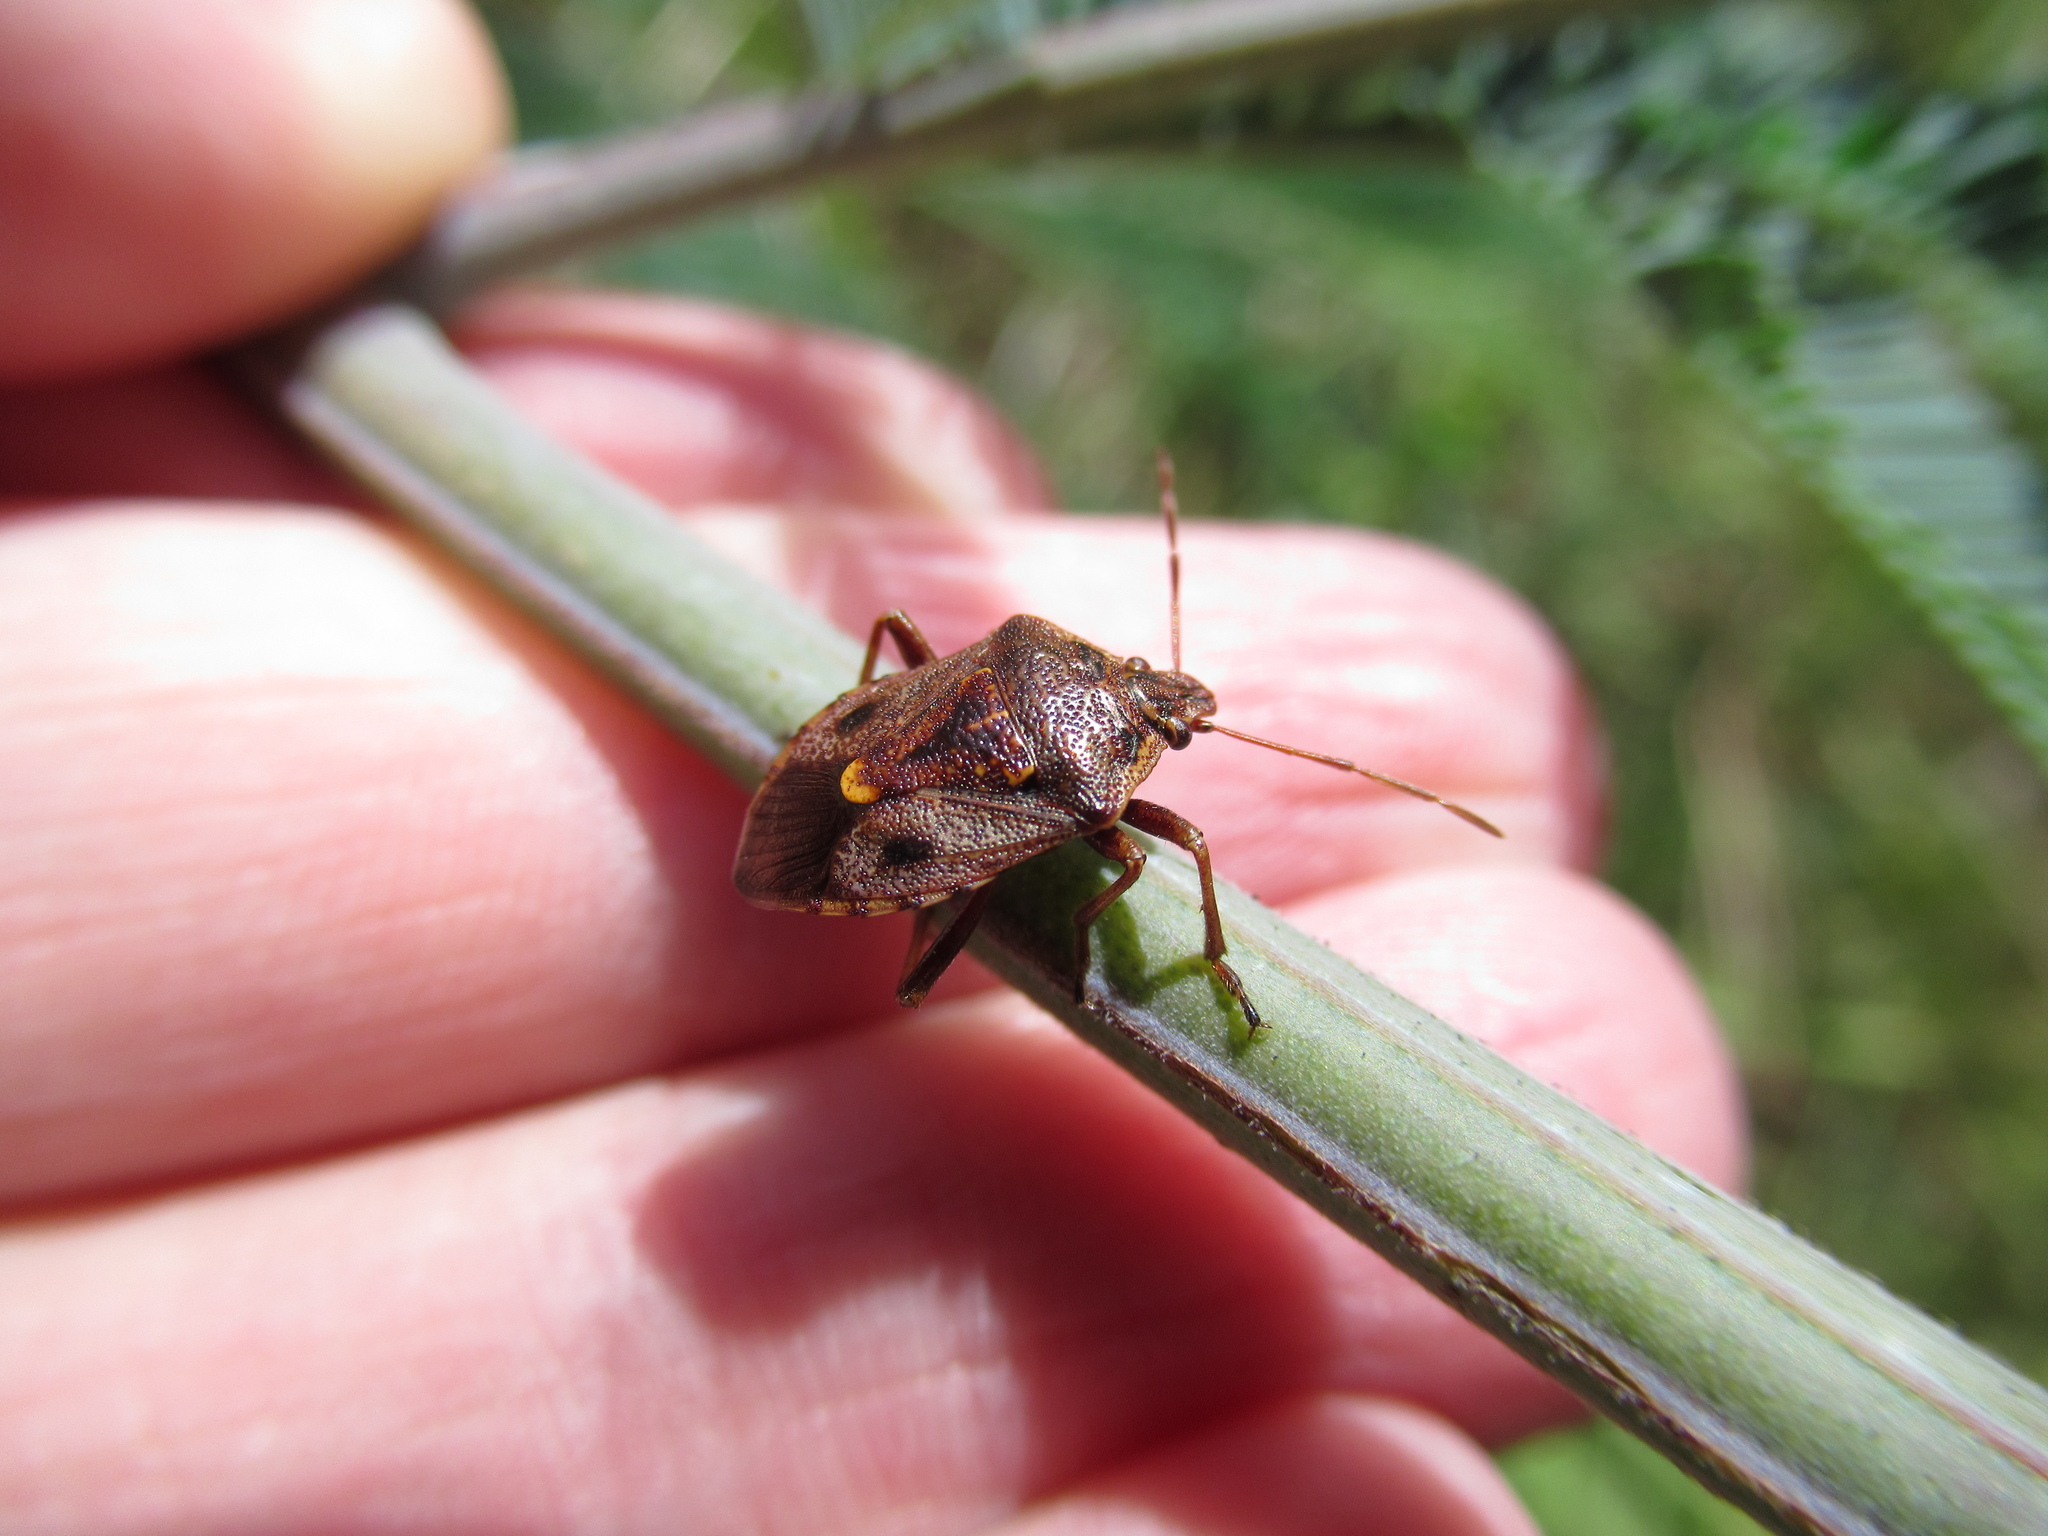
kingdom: Animalia
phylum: Arthropoda
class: Insecta
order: Hemiptera
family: Pentatomidae
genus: Cermatulus
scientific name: Cermatulus nasalis
